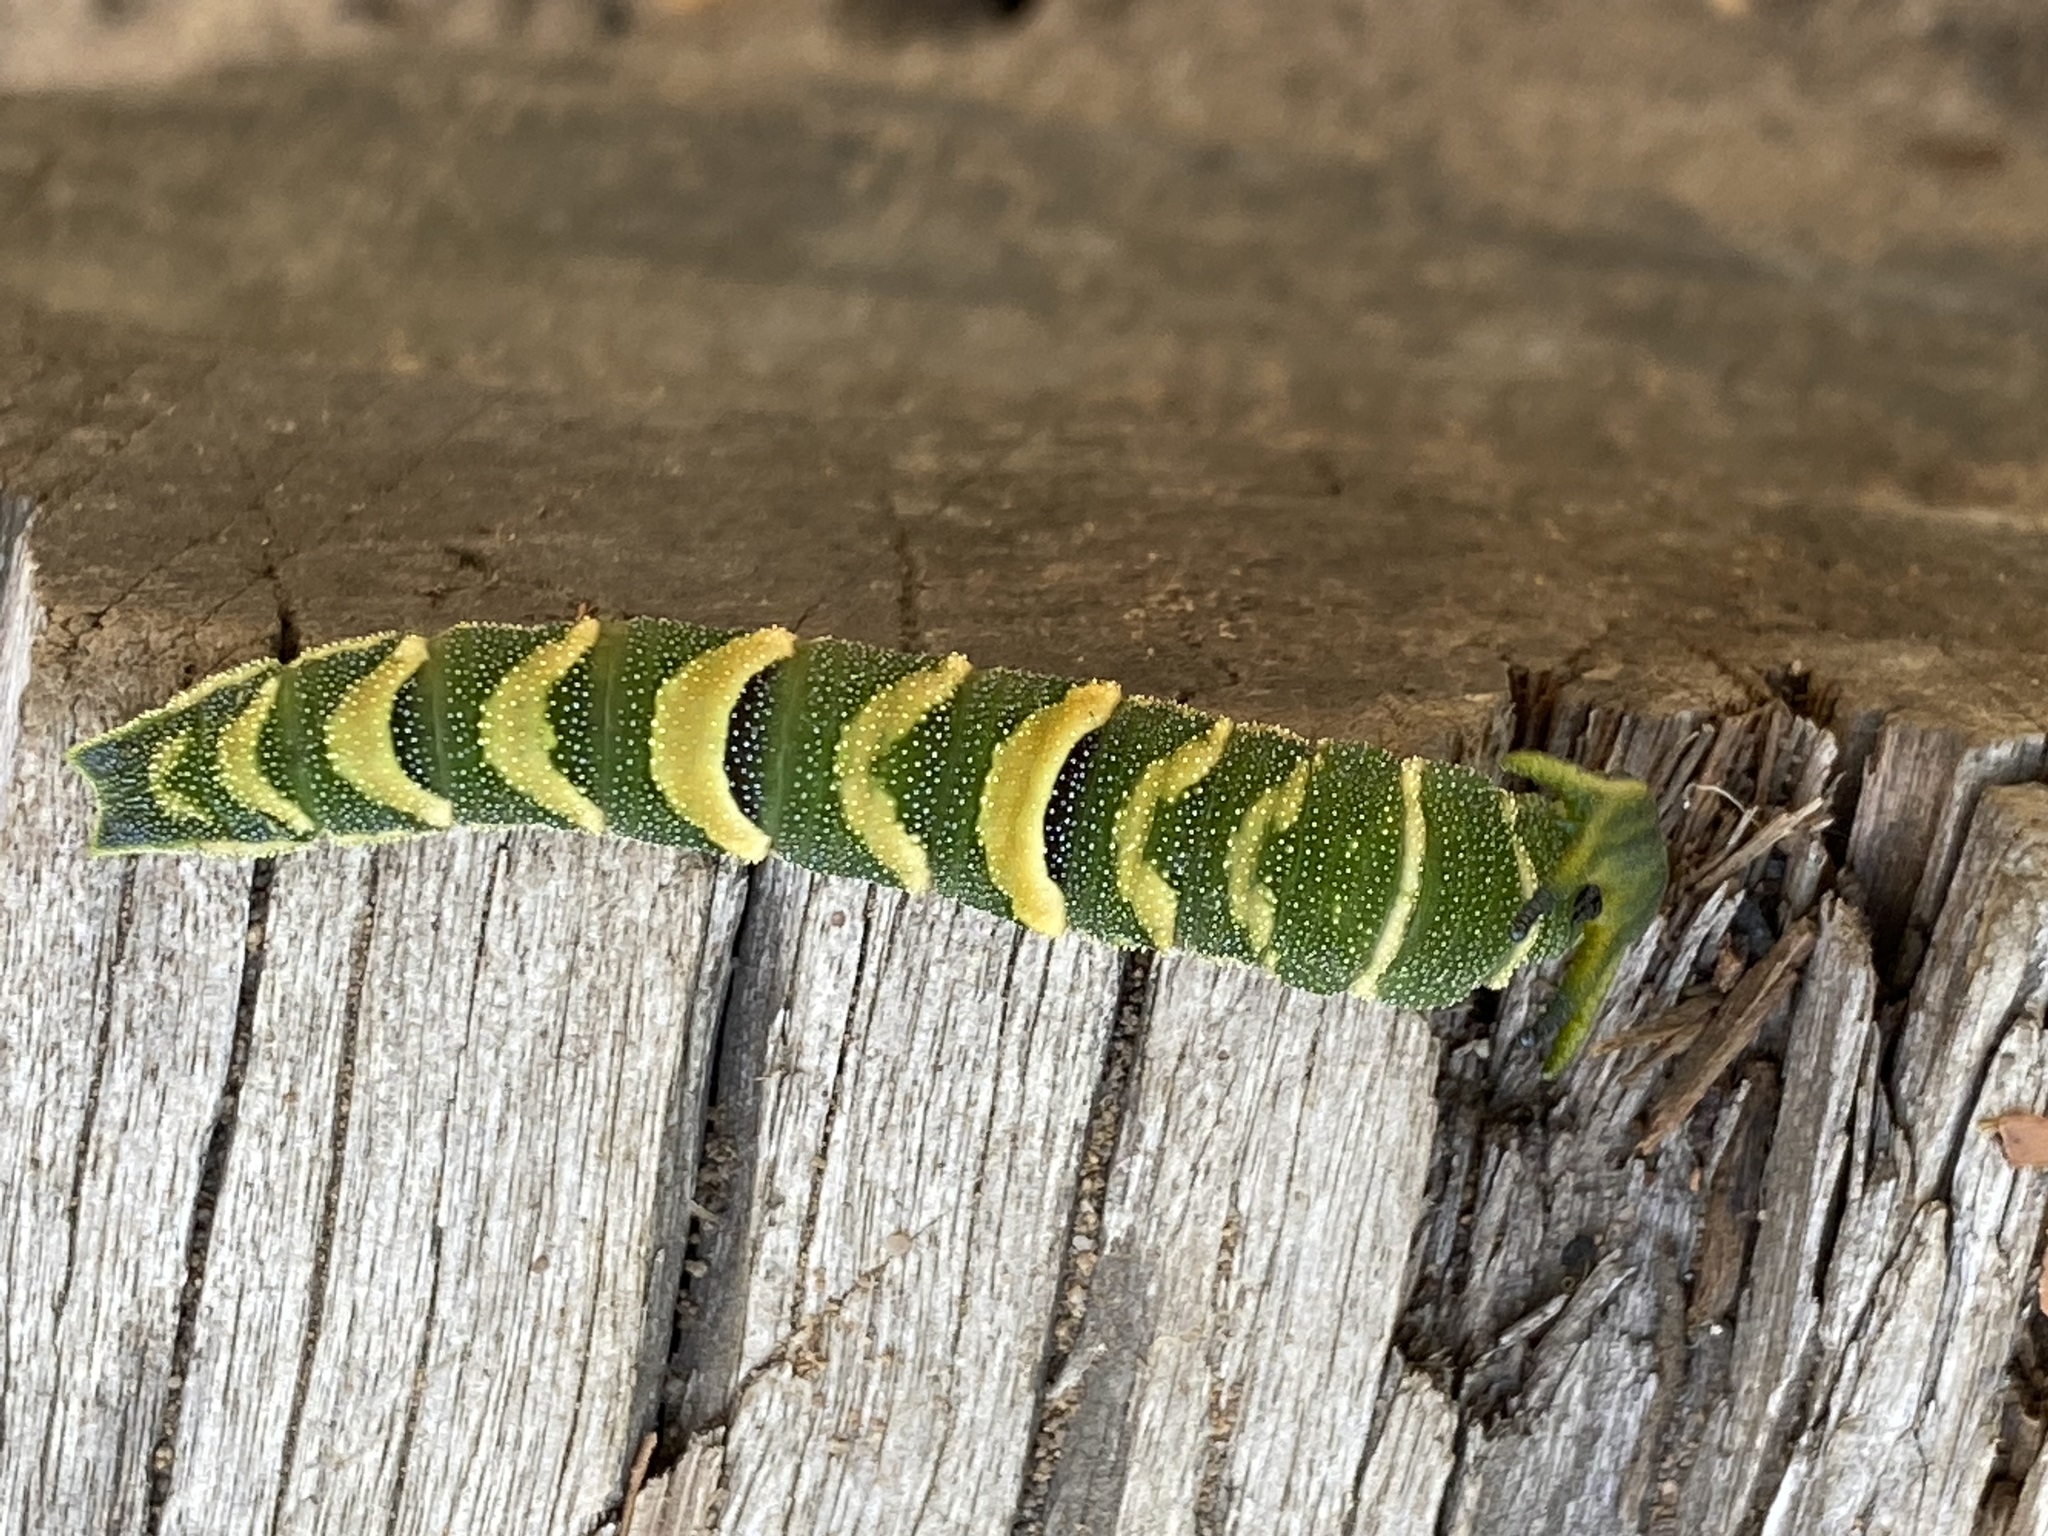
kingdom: Animalia
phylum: Arthropoda
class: Insecta
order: Lepidoptera
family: Nymphalidae
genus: Charaxes
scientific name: Charaxes
